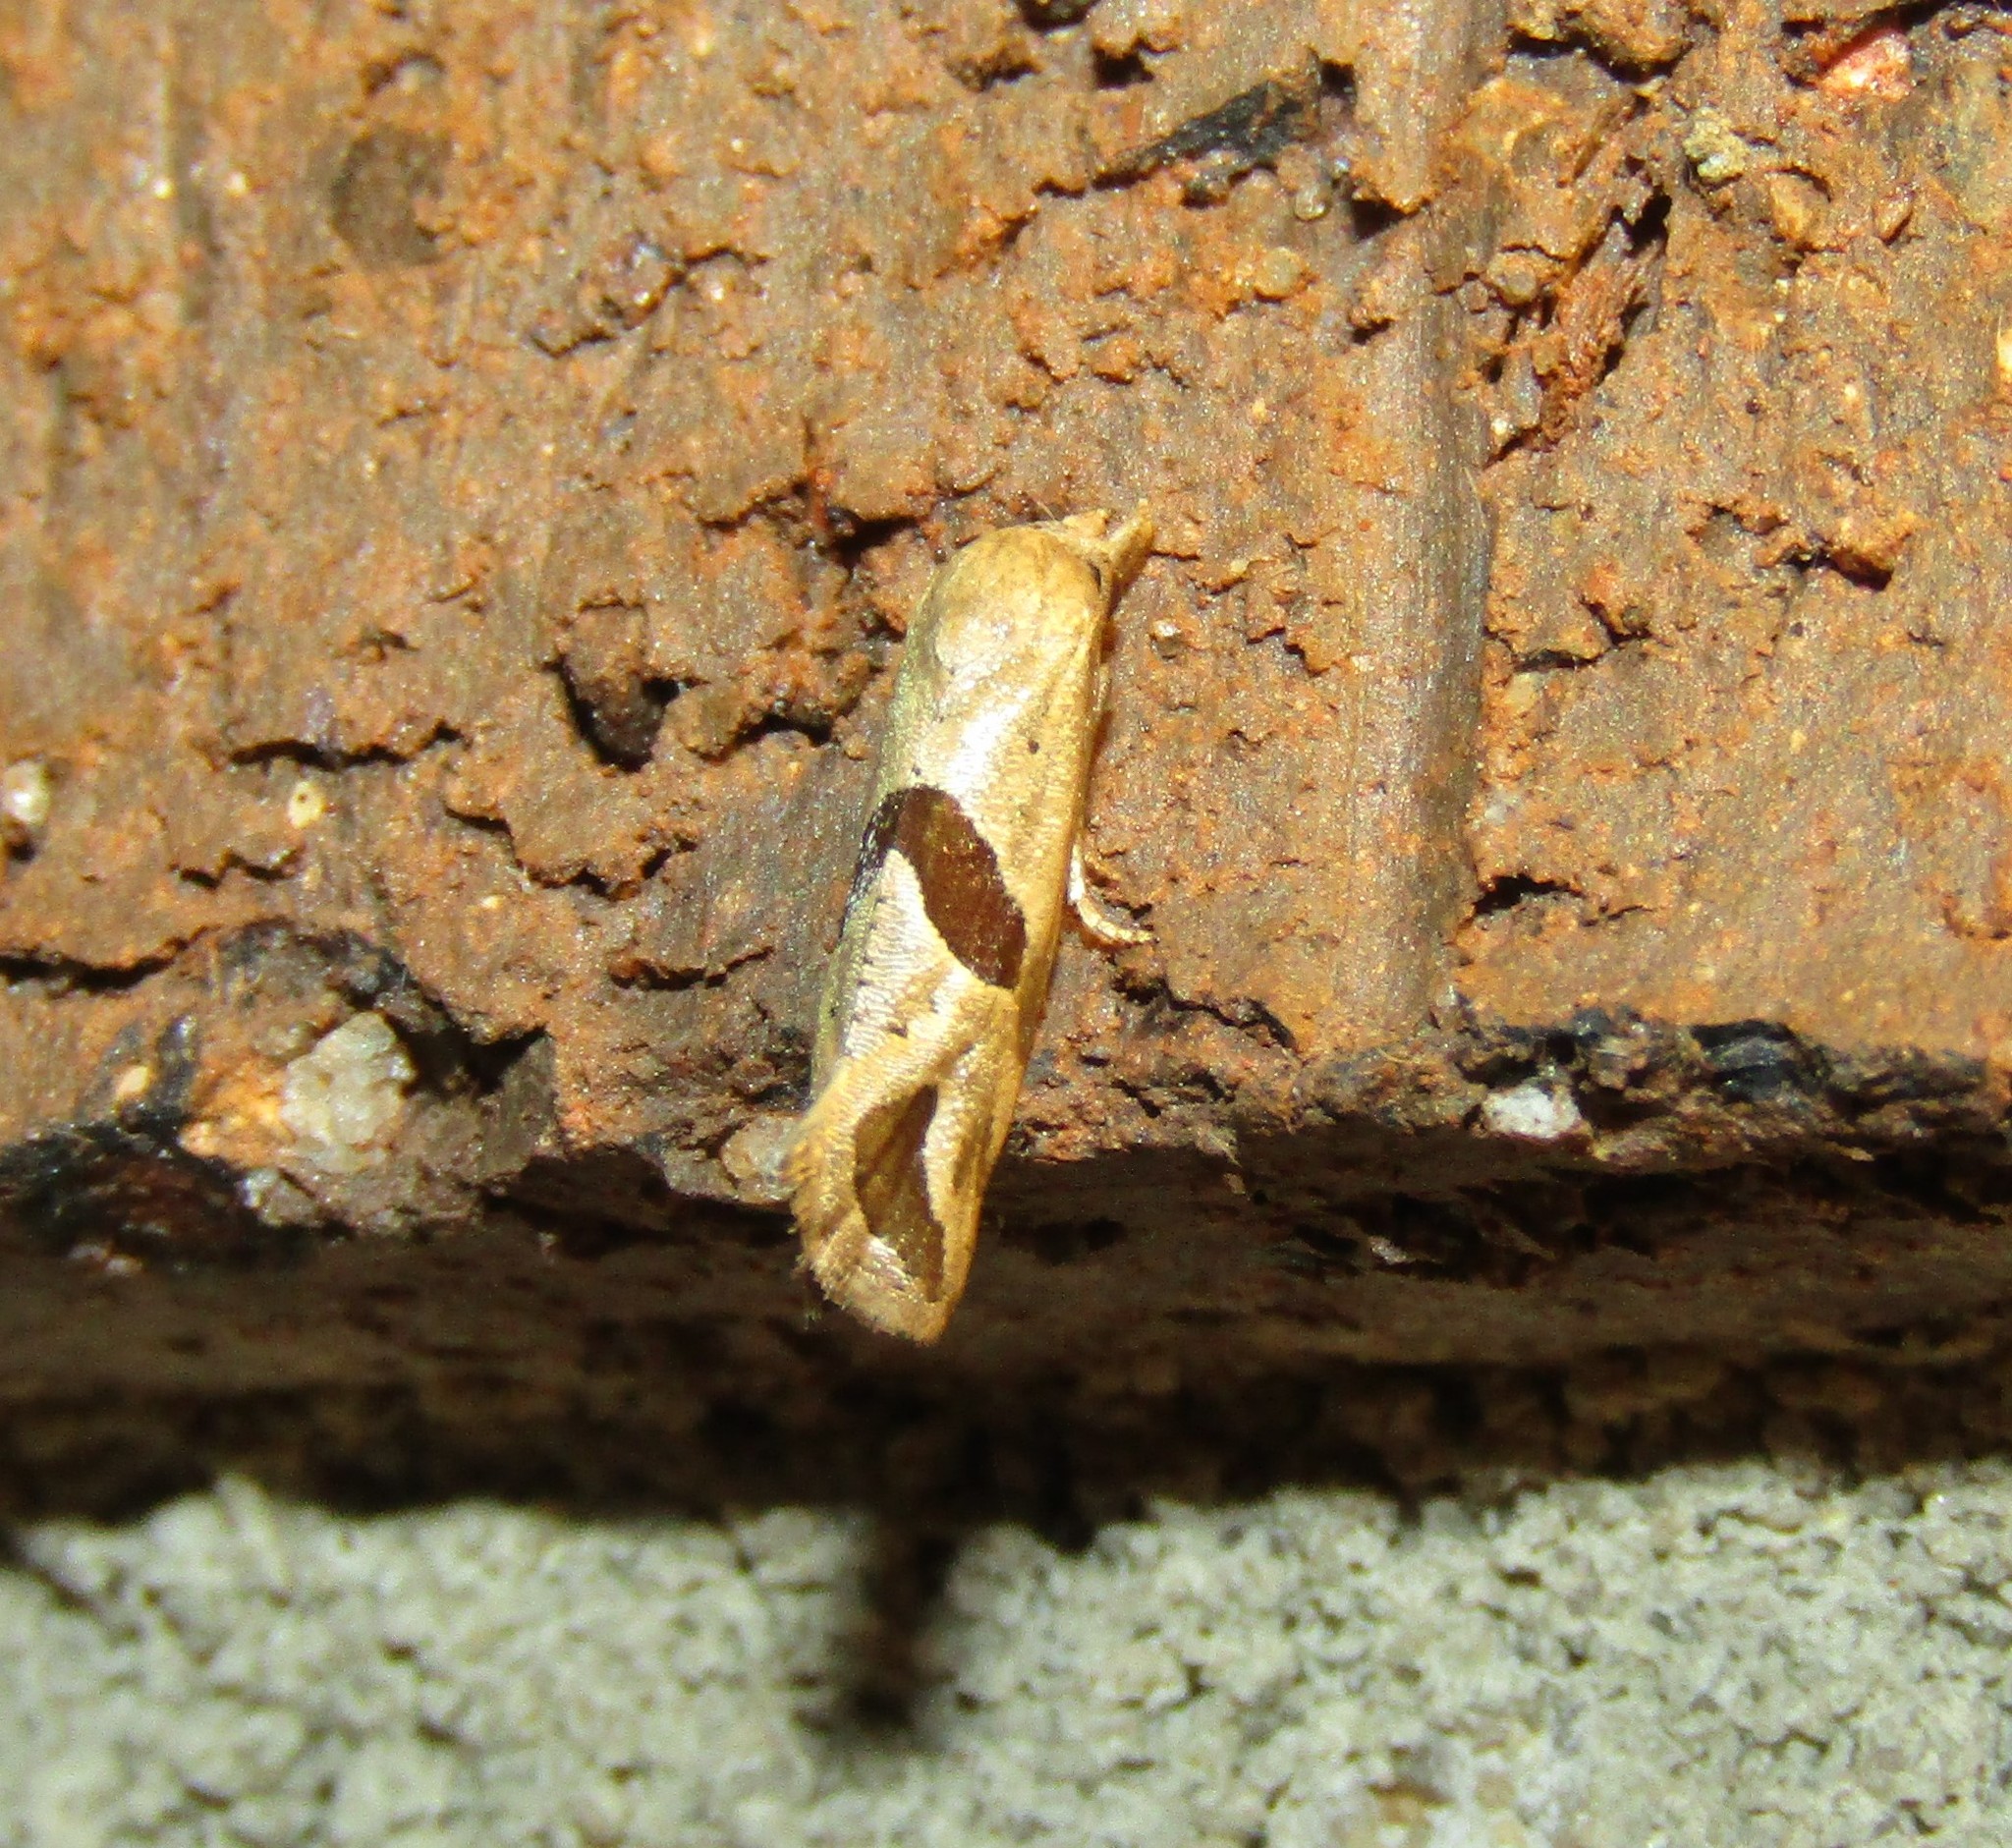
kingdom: Animalia
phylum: Arthropoda
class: Insecta
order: Lepidoptera
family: Tortricidae
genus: Eugnosta
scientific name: Eugnosta sartana
